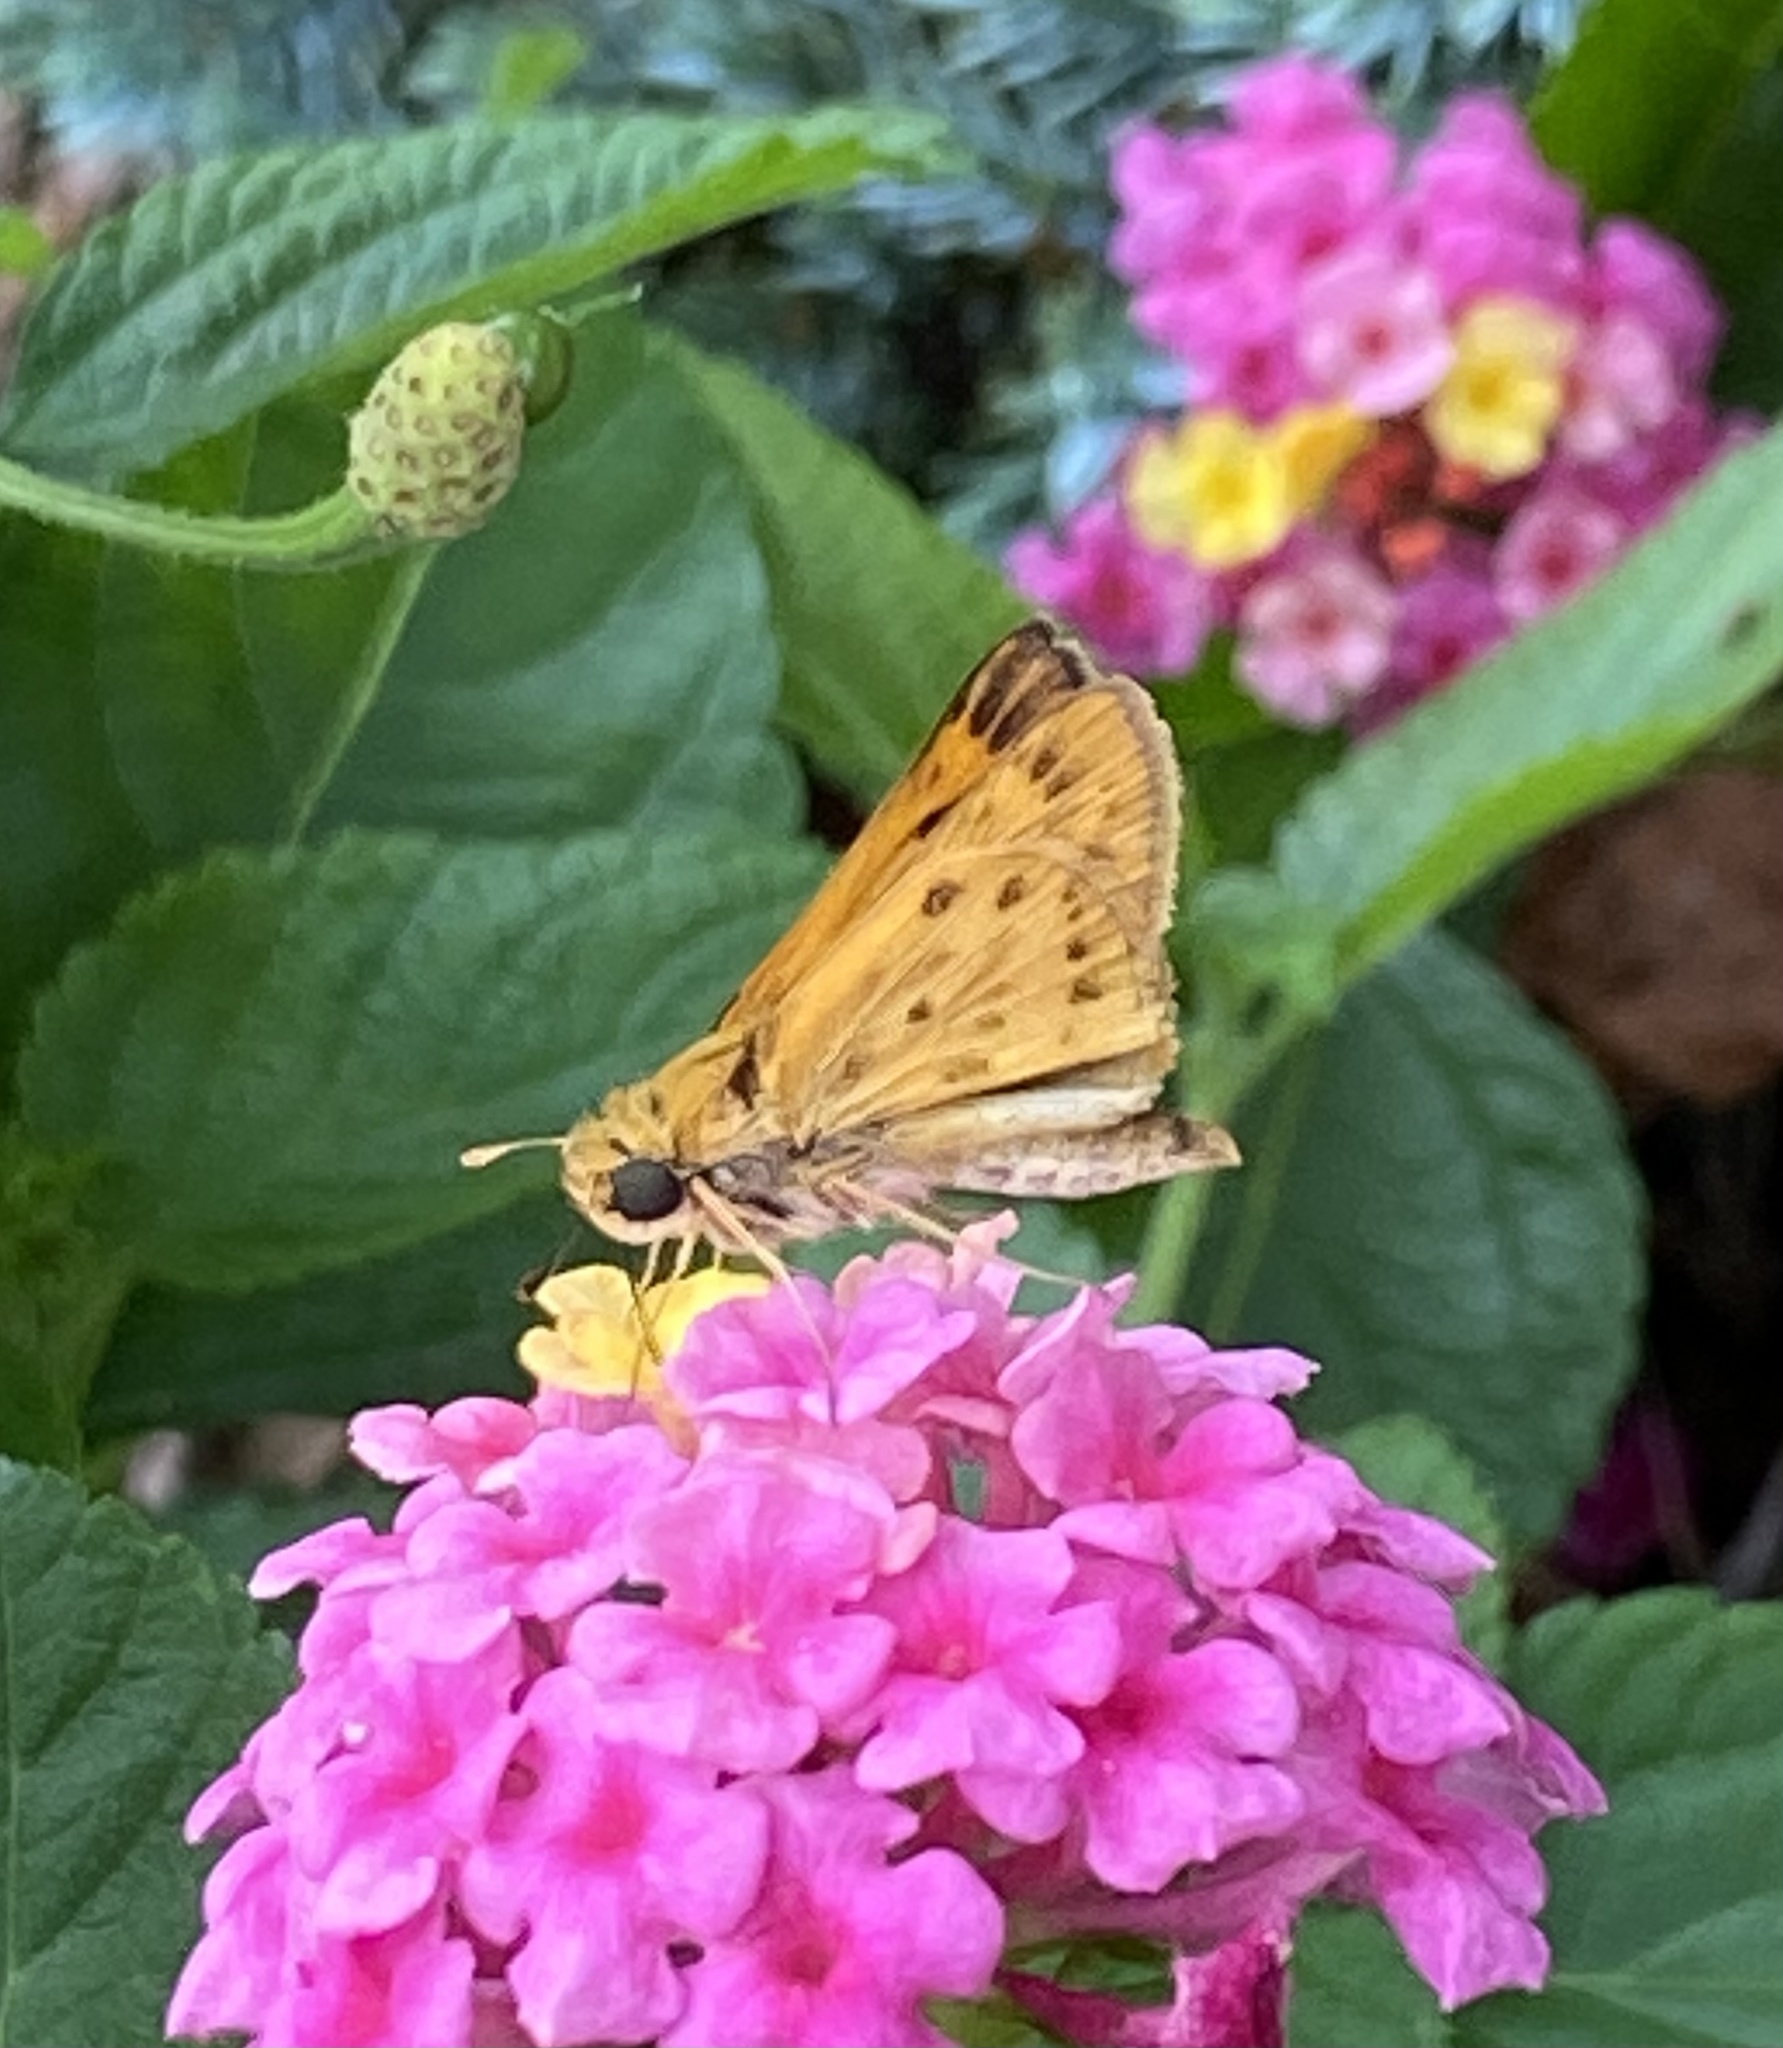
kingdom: Animalia
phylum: Arthropoda
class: Insecta
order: Lepidoptera
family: Hesperiidae
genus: Hylephila
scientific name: Hylephila phyleus
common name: Fiery skipper
